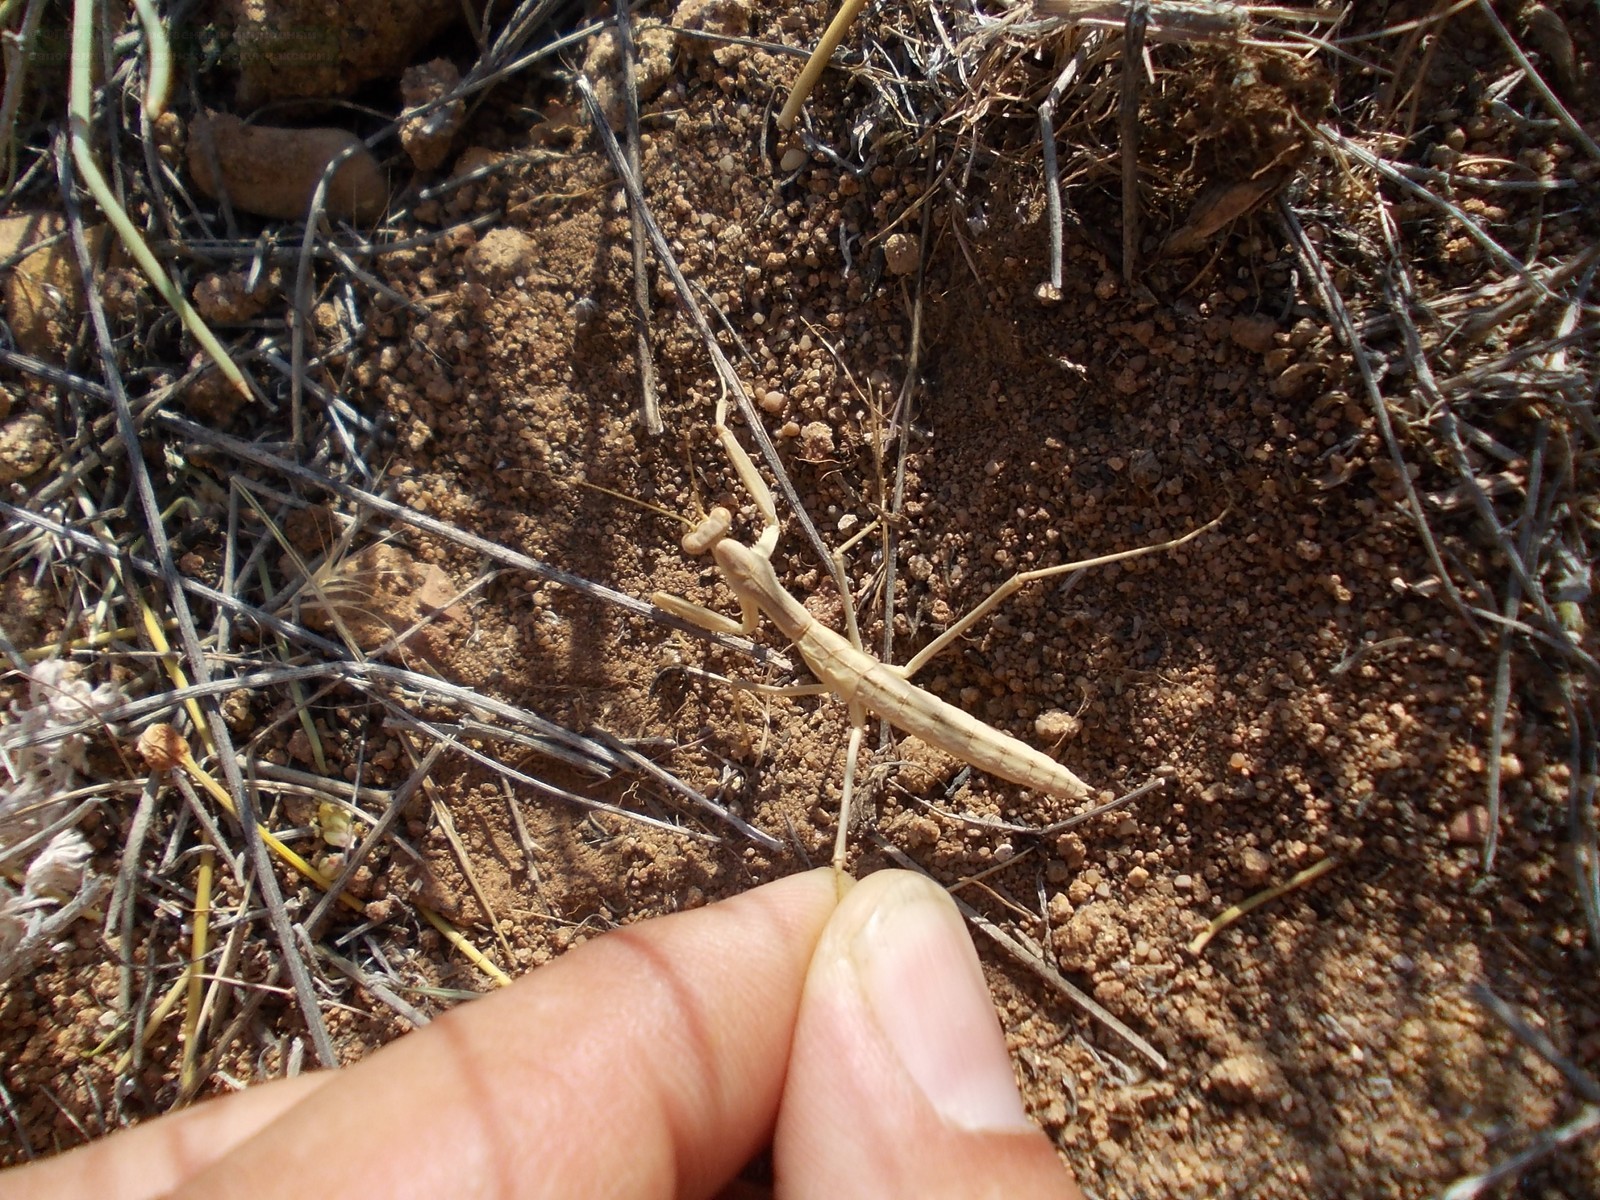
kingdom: Animalia
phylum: Arthropoda
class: Insecta
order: Mantodea
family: Rivetinidae
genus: Bolivaria
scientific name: Bolivaria brachyptera
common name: Bolivar's short winged mantis
